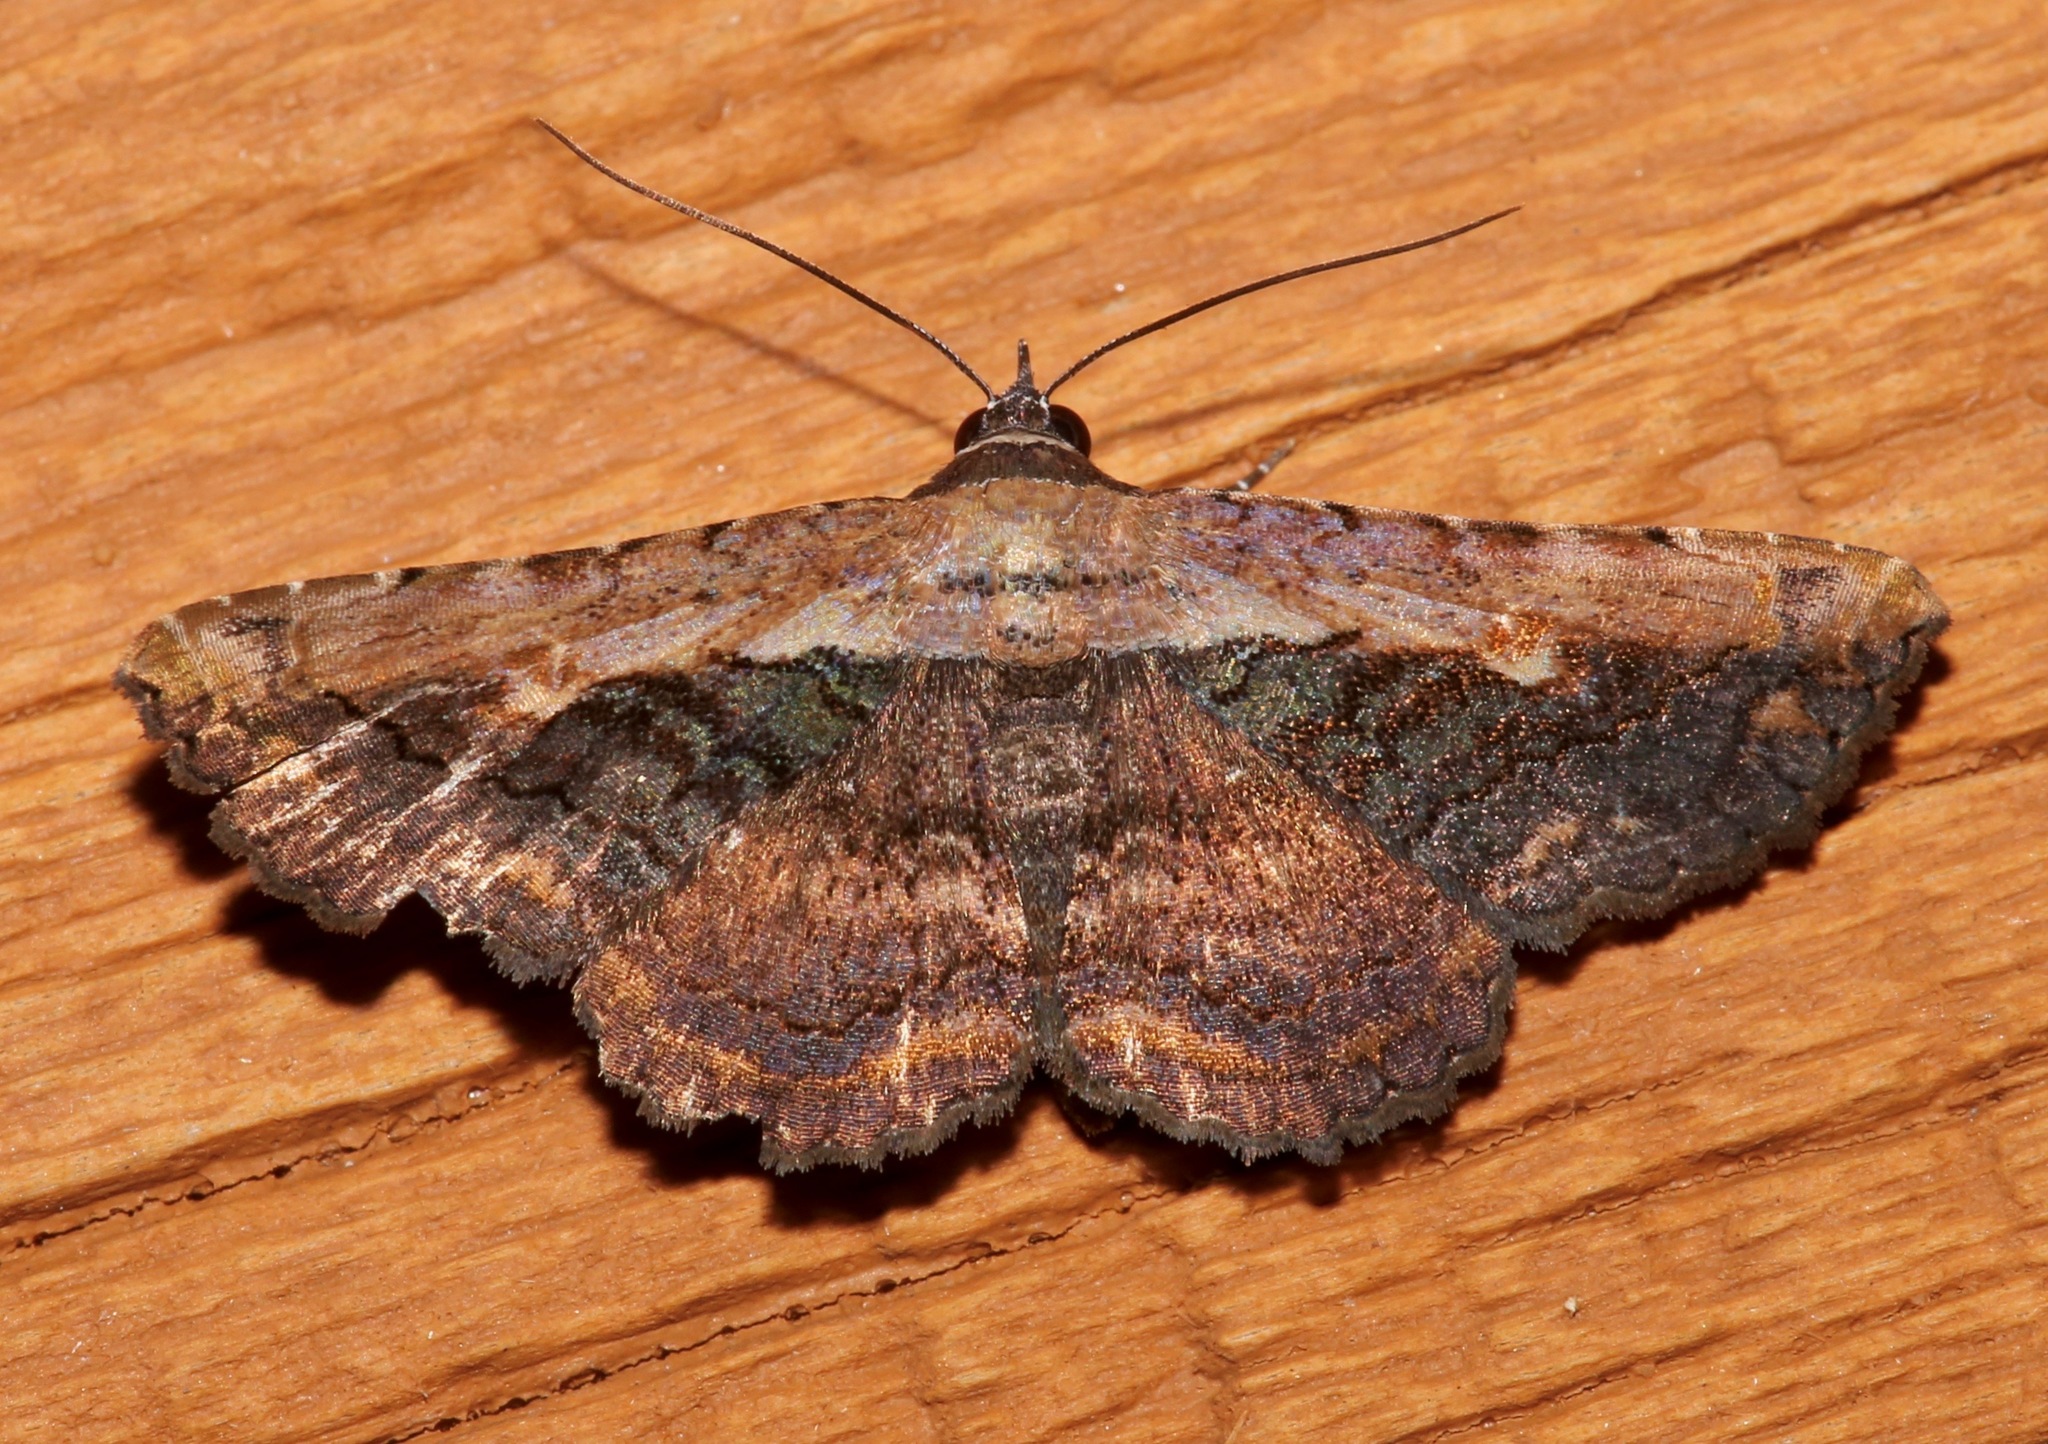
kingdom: Animalia
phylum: Arthropoda
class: Insecta
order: Lepidoptera
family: Erebidae
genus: Selenisa
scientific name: Selenisa sueroides
